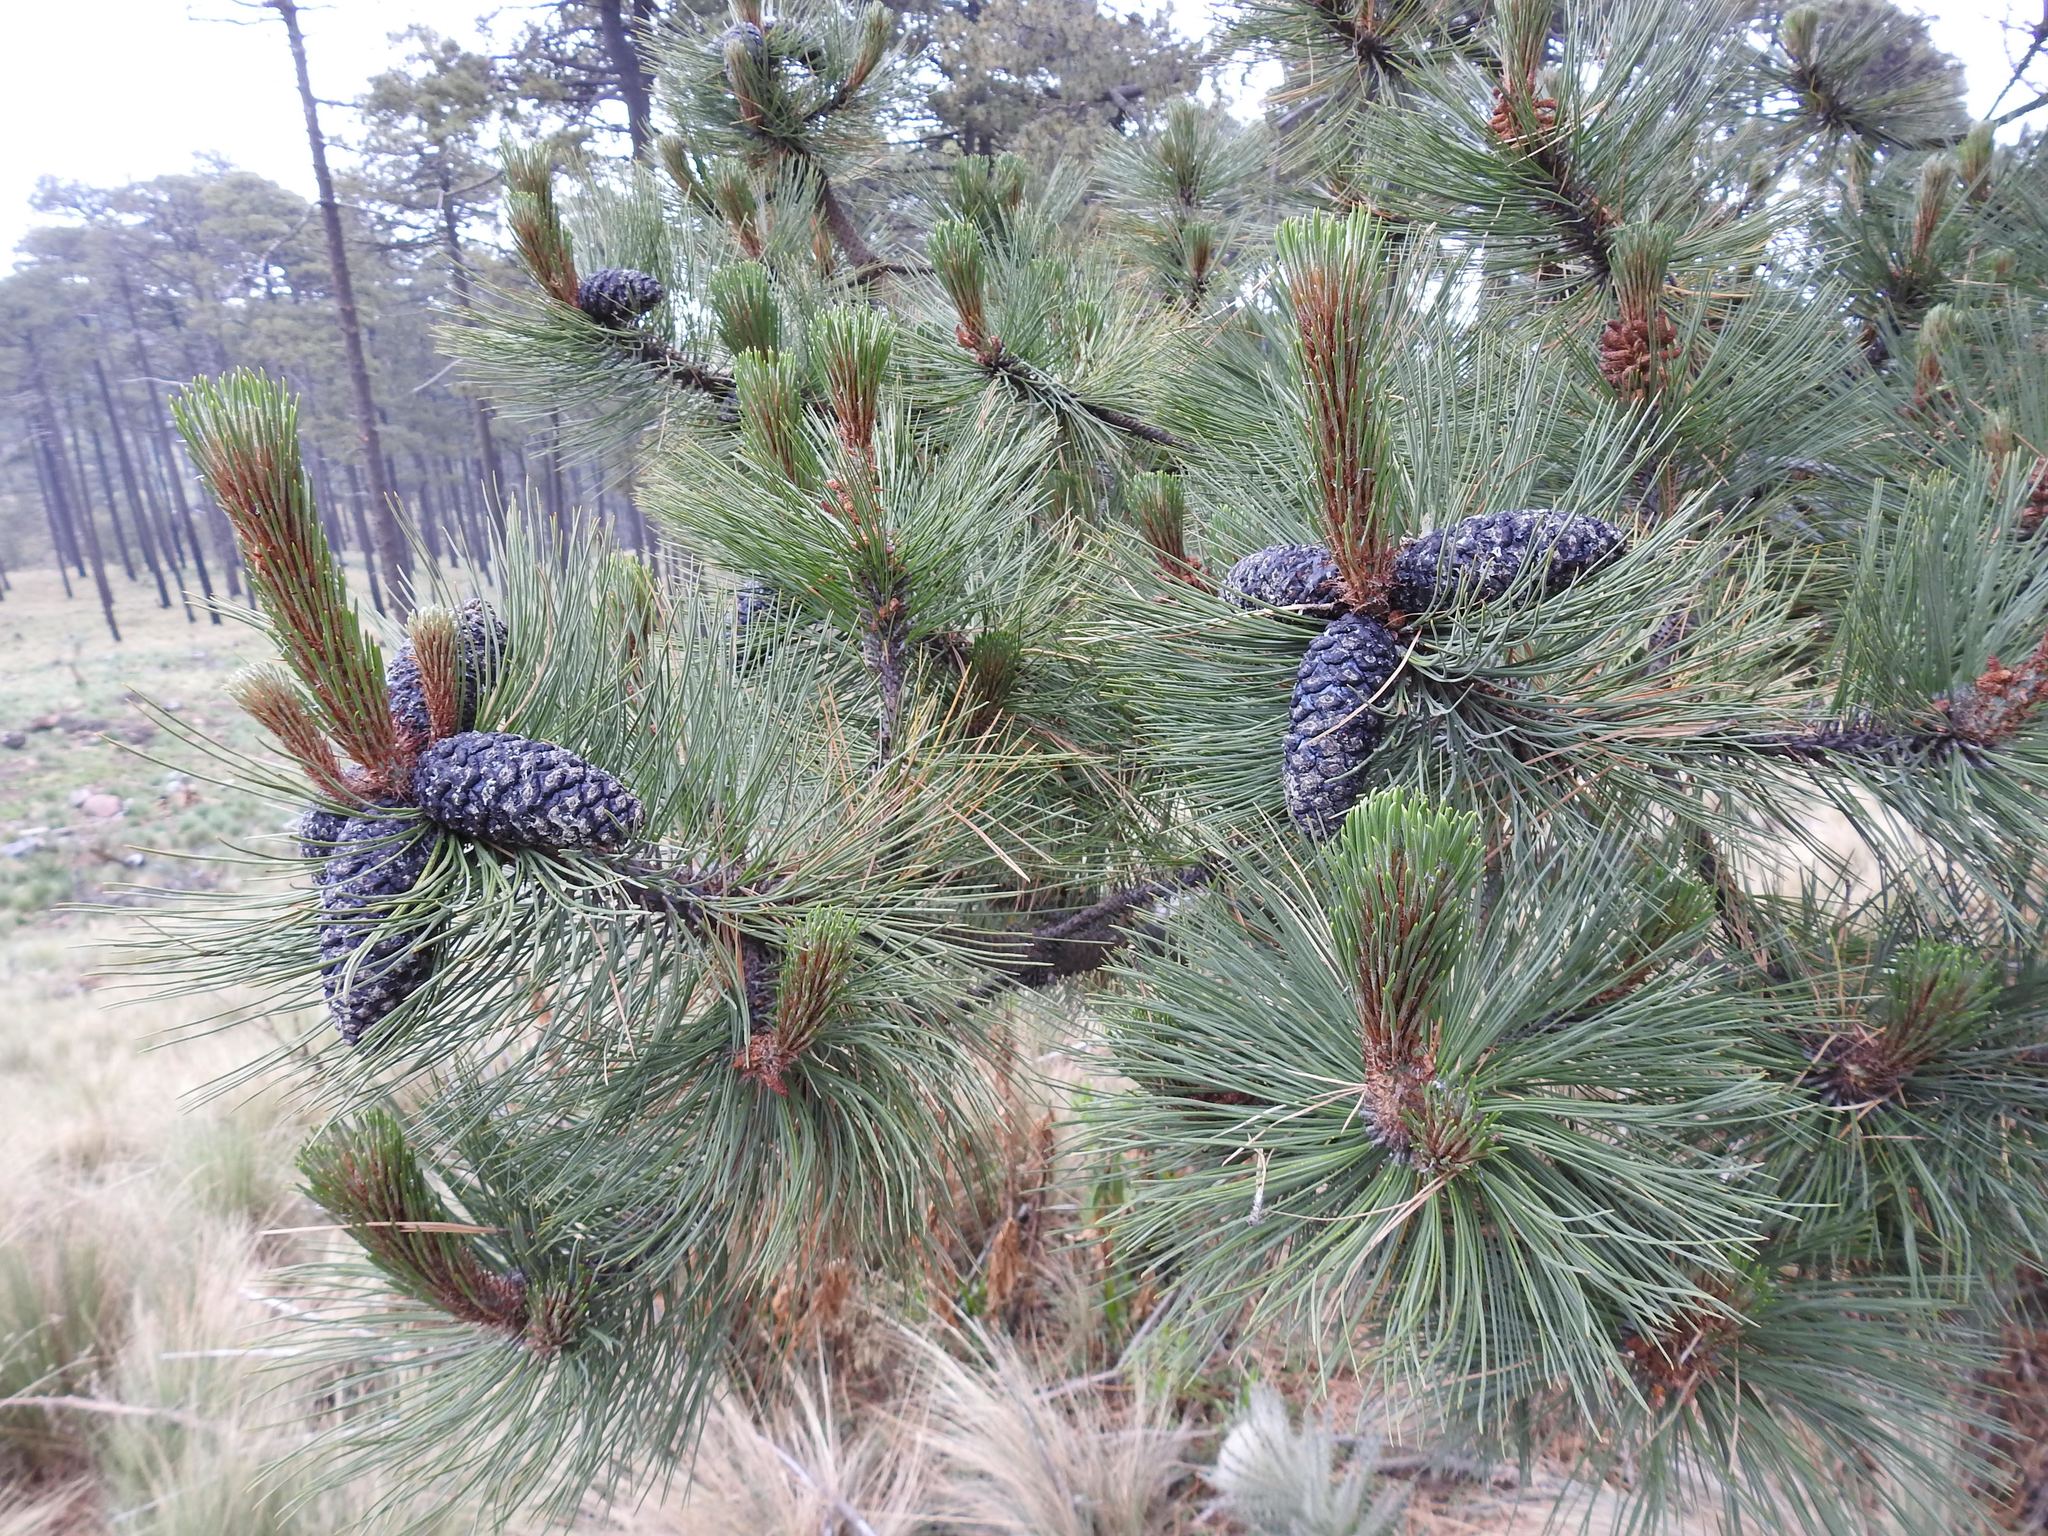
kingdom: Plantae
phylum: Tracheophyta
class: Pinopsida
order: Pinales
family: Pinaceae
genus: Pinus
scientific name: Pinus hartwegii
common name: Hartweg's pine
